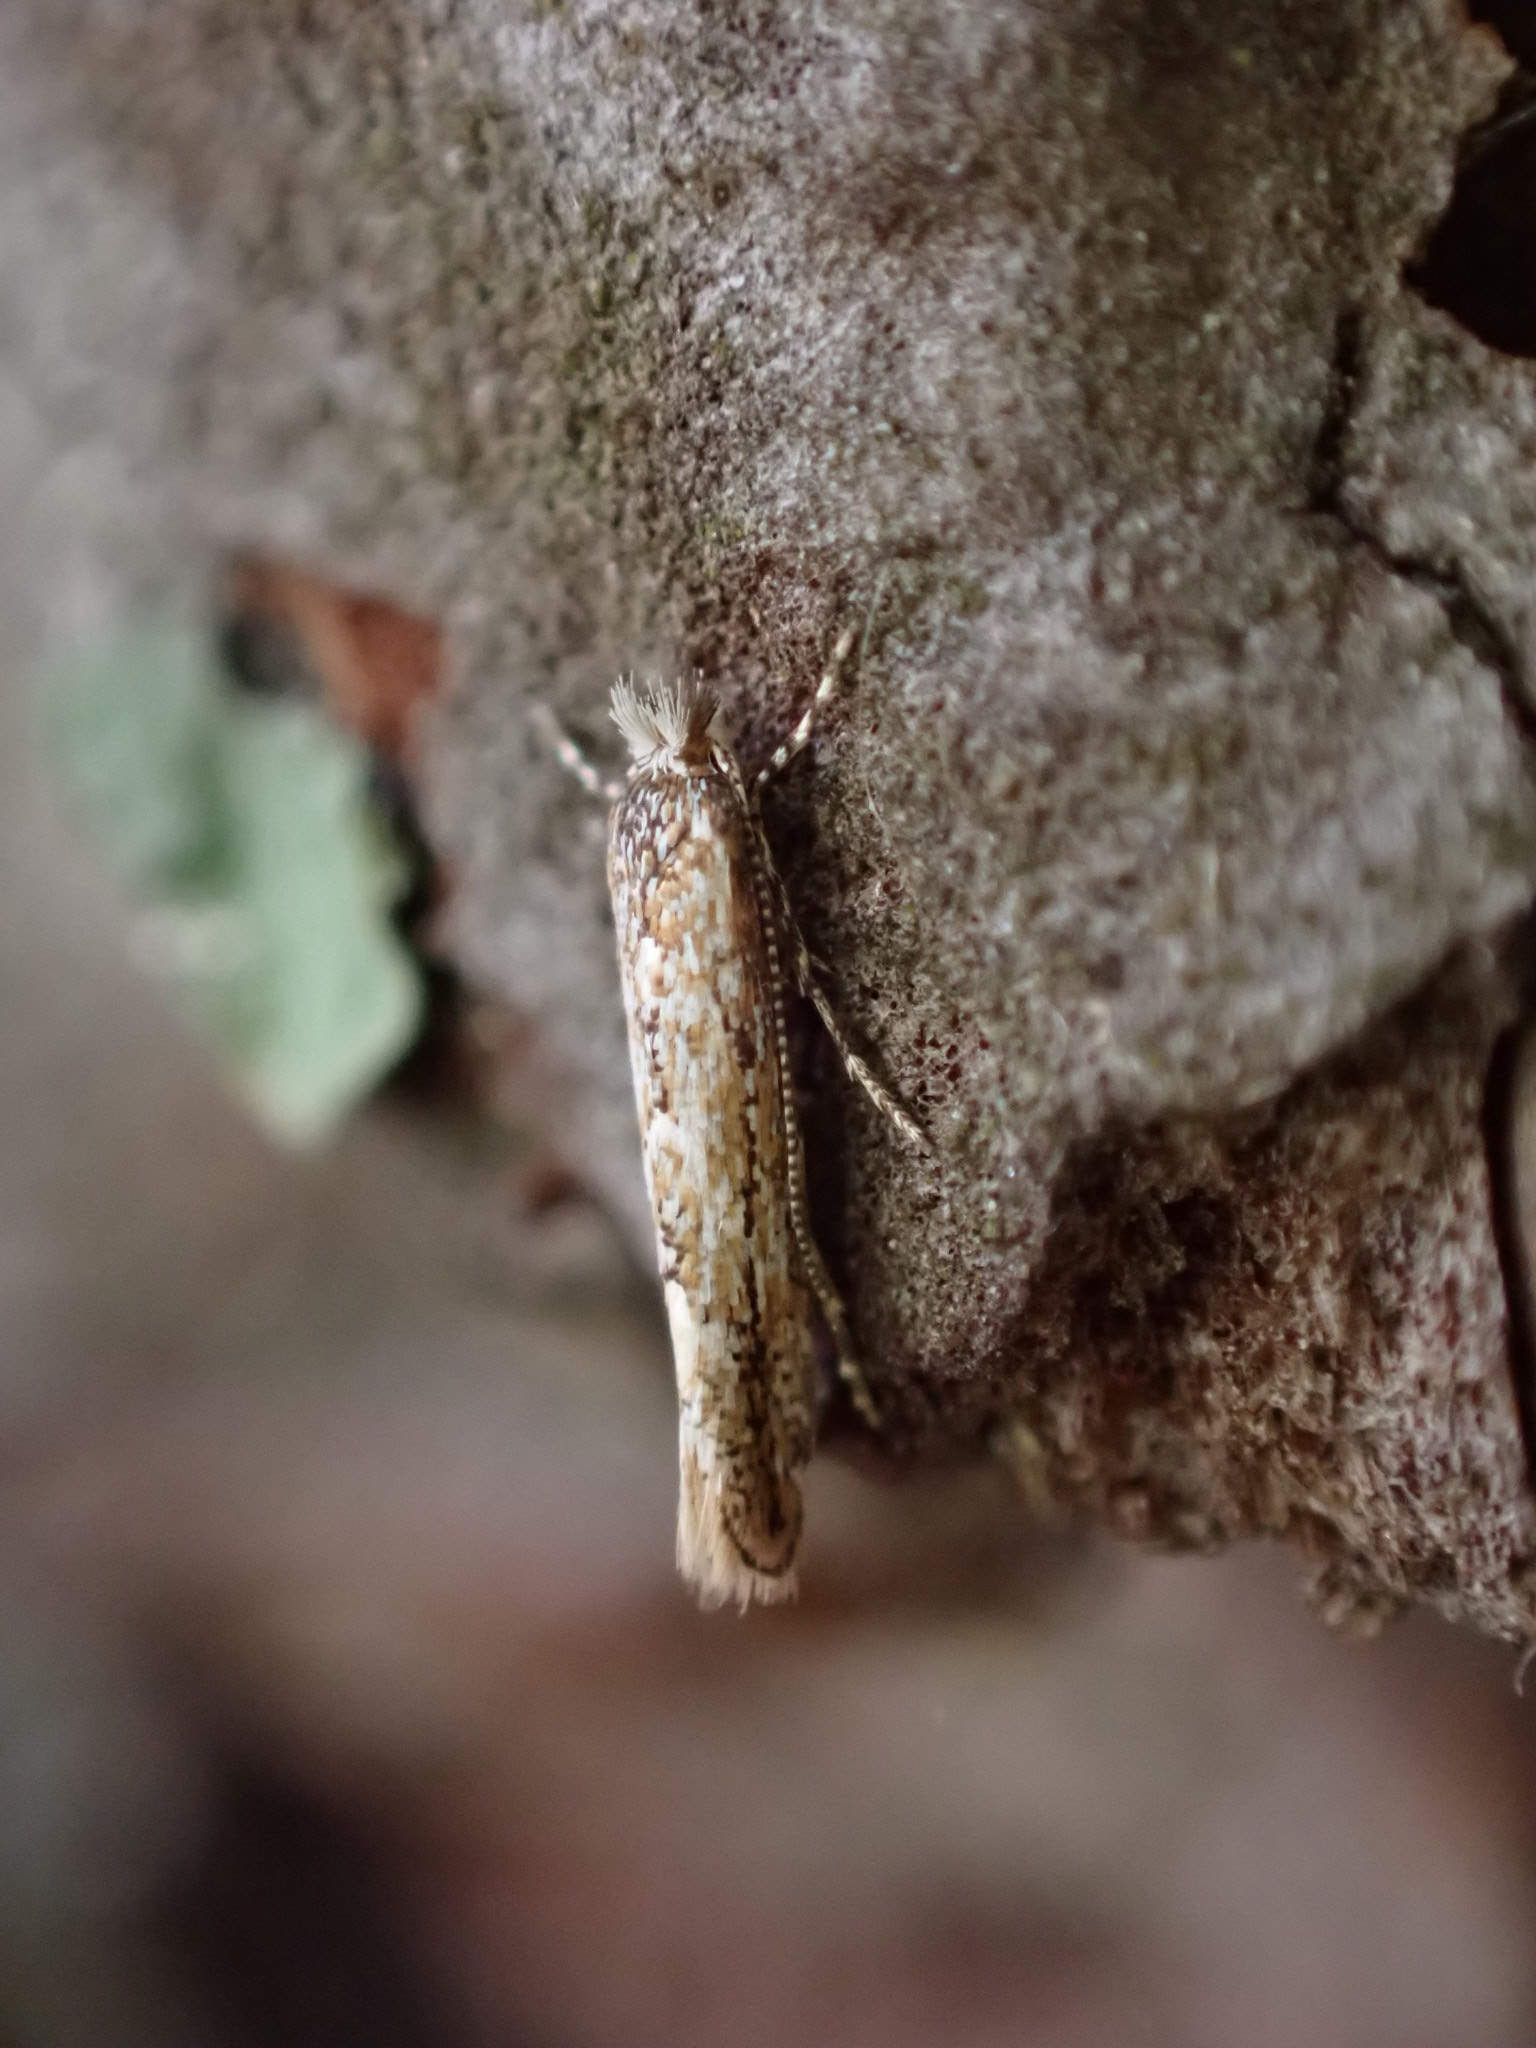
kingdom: Animalia
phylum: Arthropoda
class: Insecta
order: Lepidoptera
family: Gracillariidae
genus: Phyllonorycter
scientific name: Phyllonorycter issikii
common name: Linden midget
